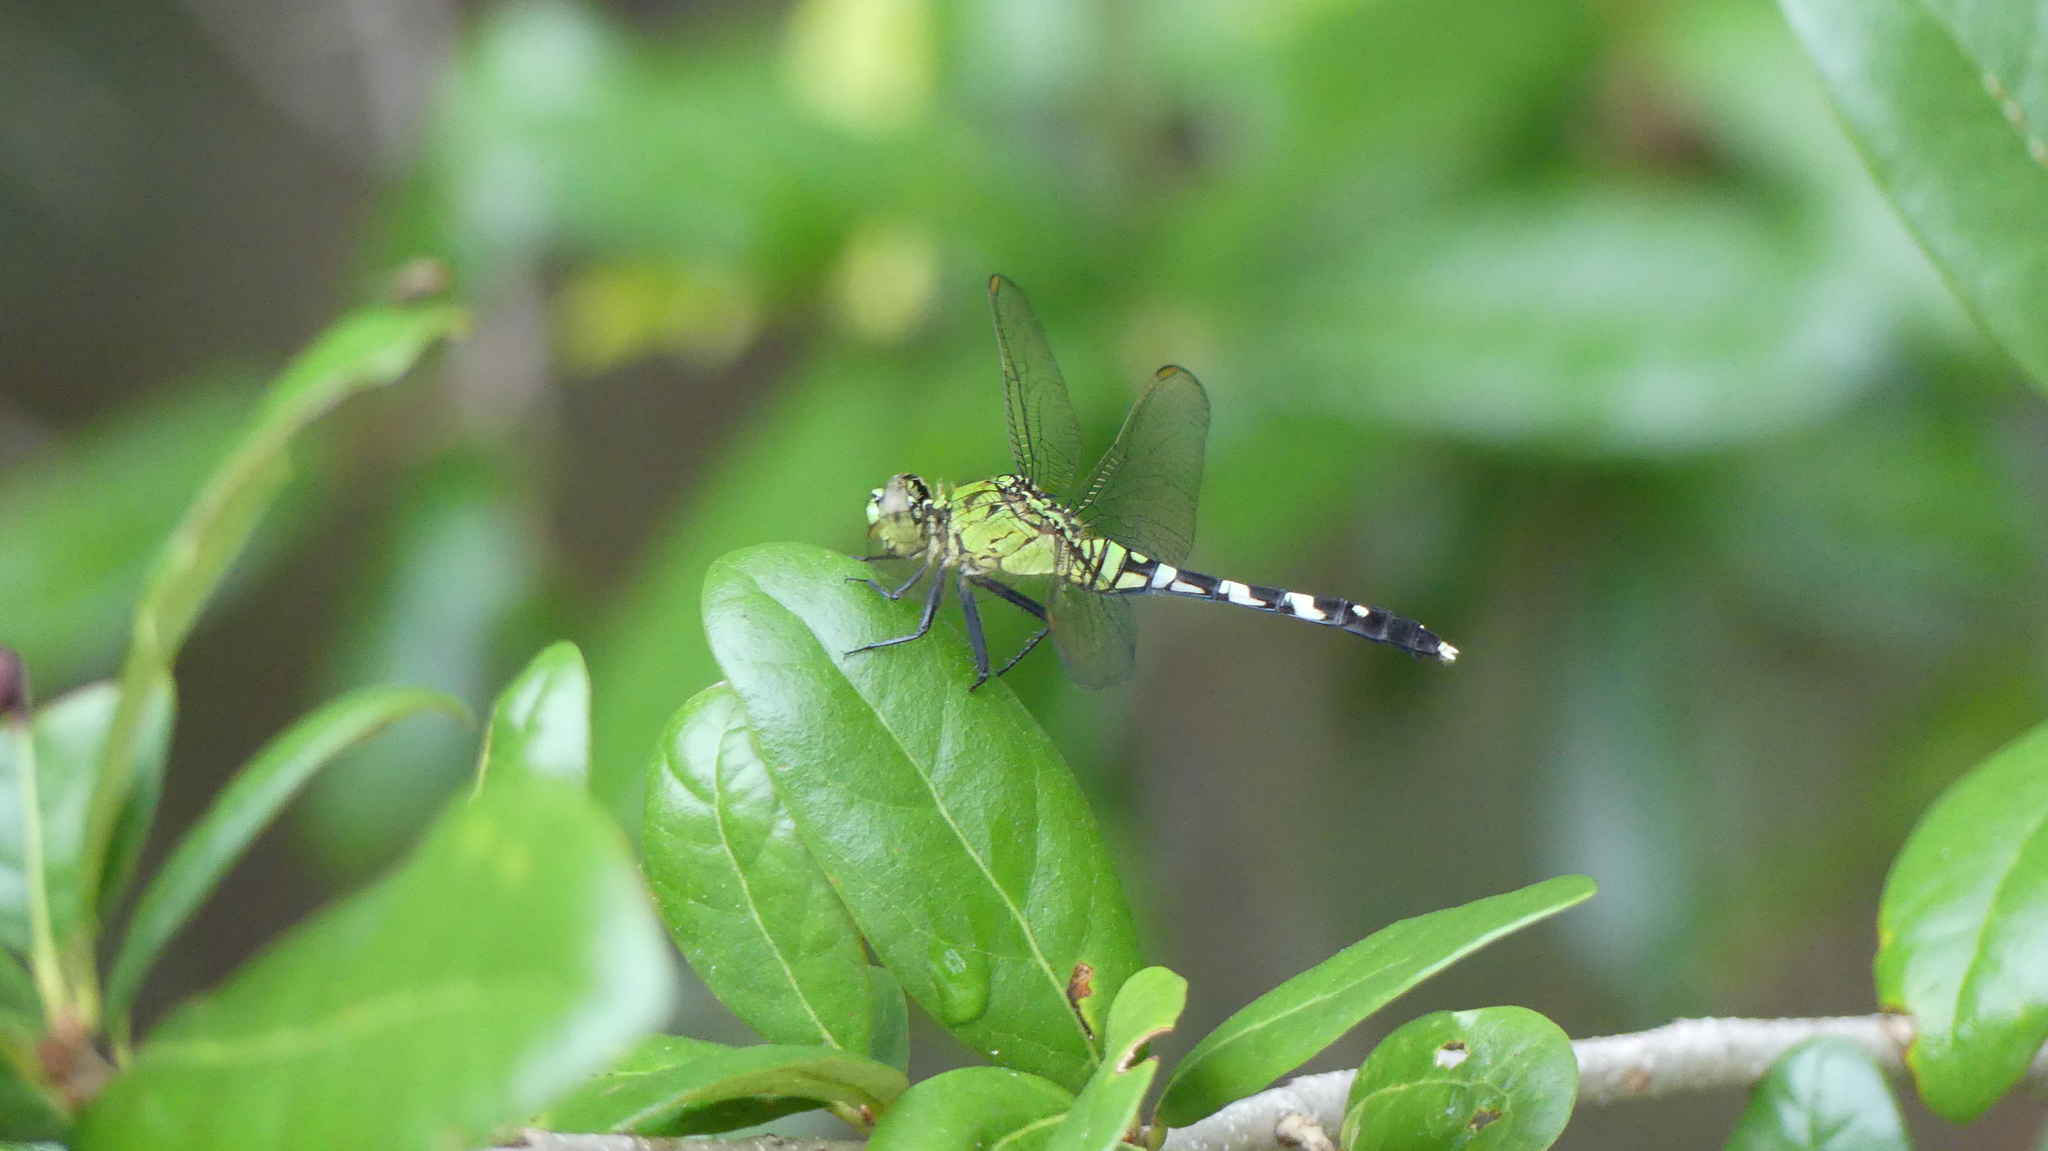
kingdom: Animalia
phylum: Arthropoda
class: Insecta
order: Odonata
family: Libellulidae
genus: Erythemis
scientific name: Erythemis simplicicollis
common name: Eastern pondhawk
